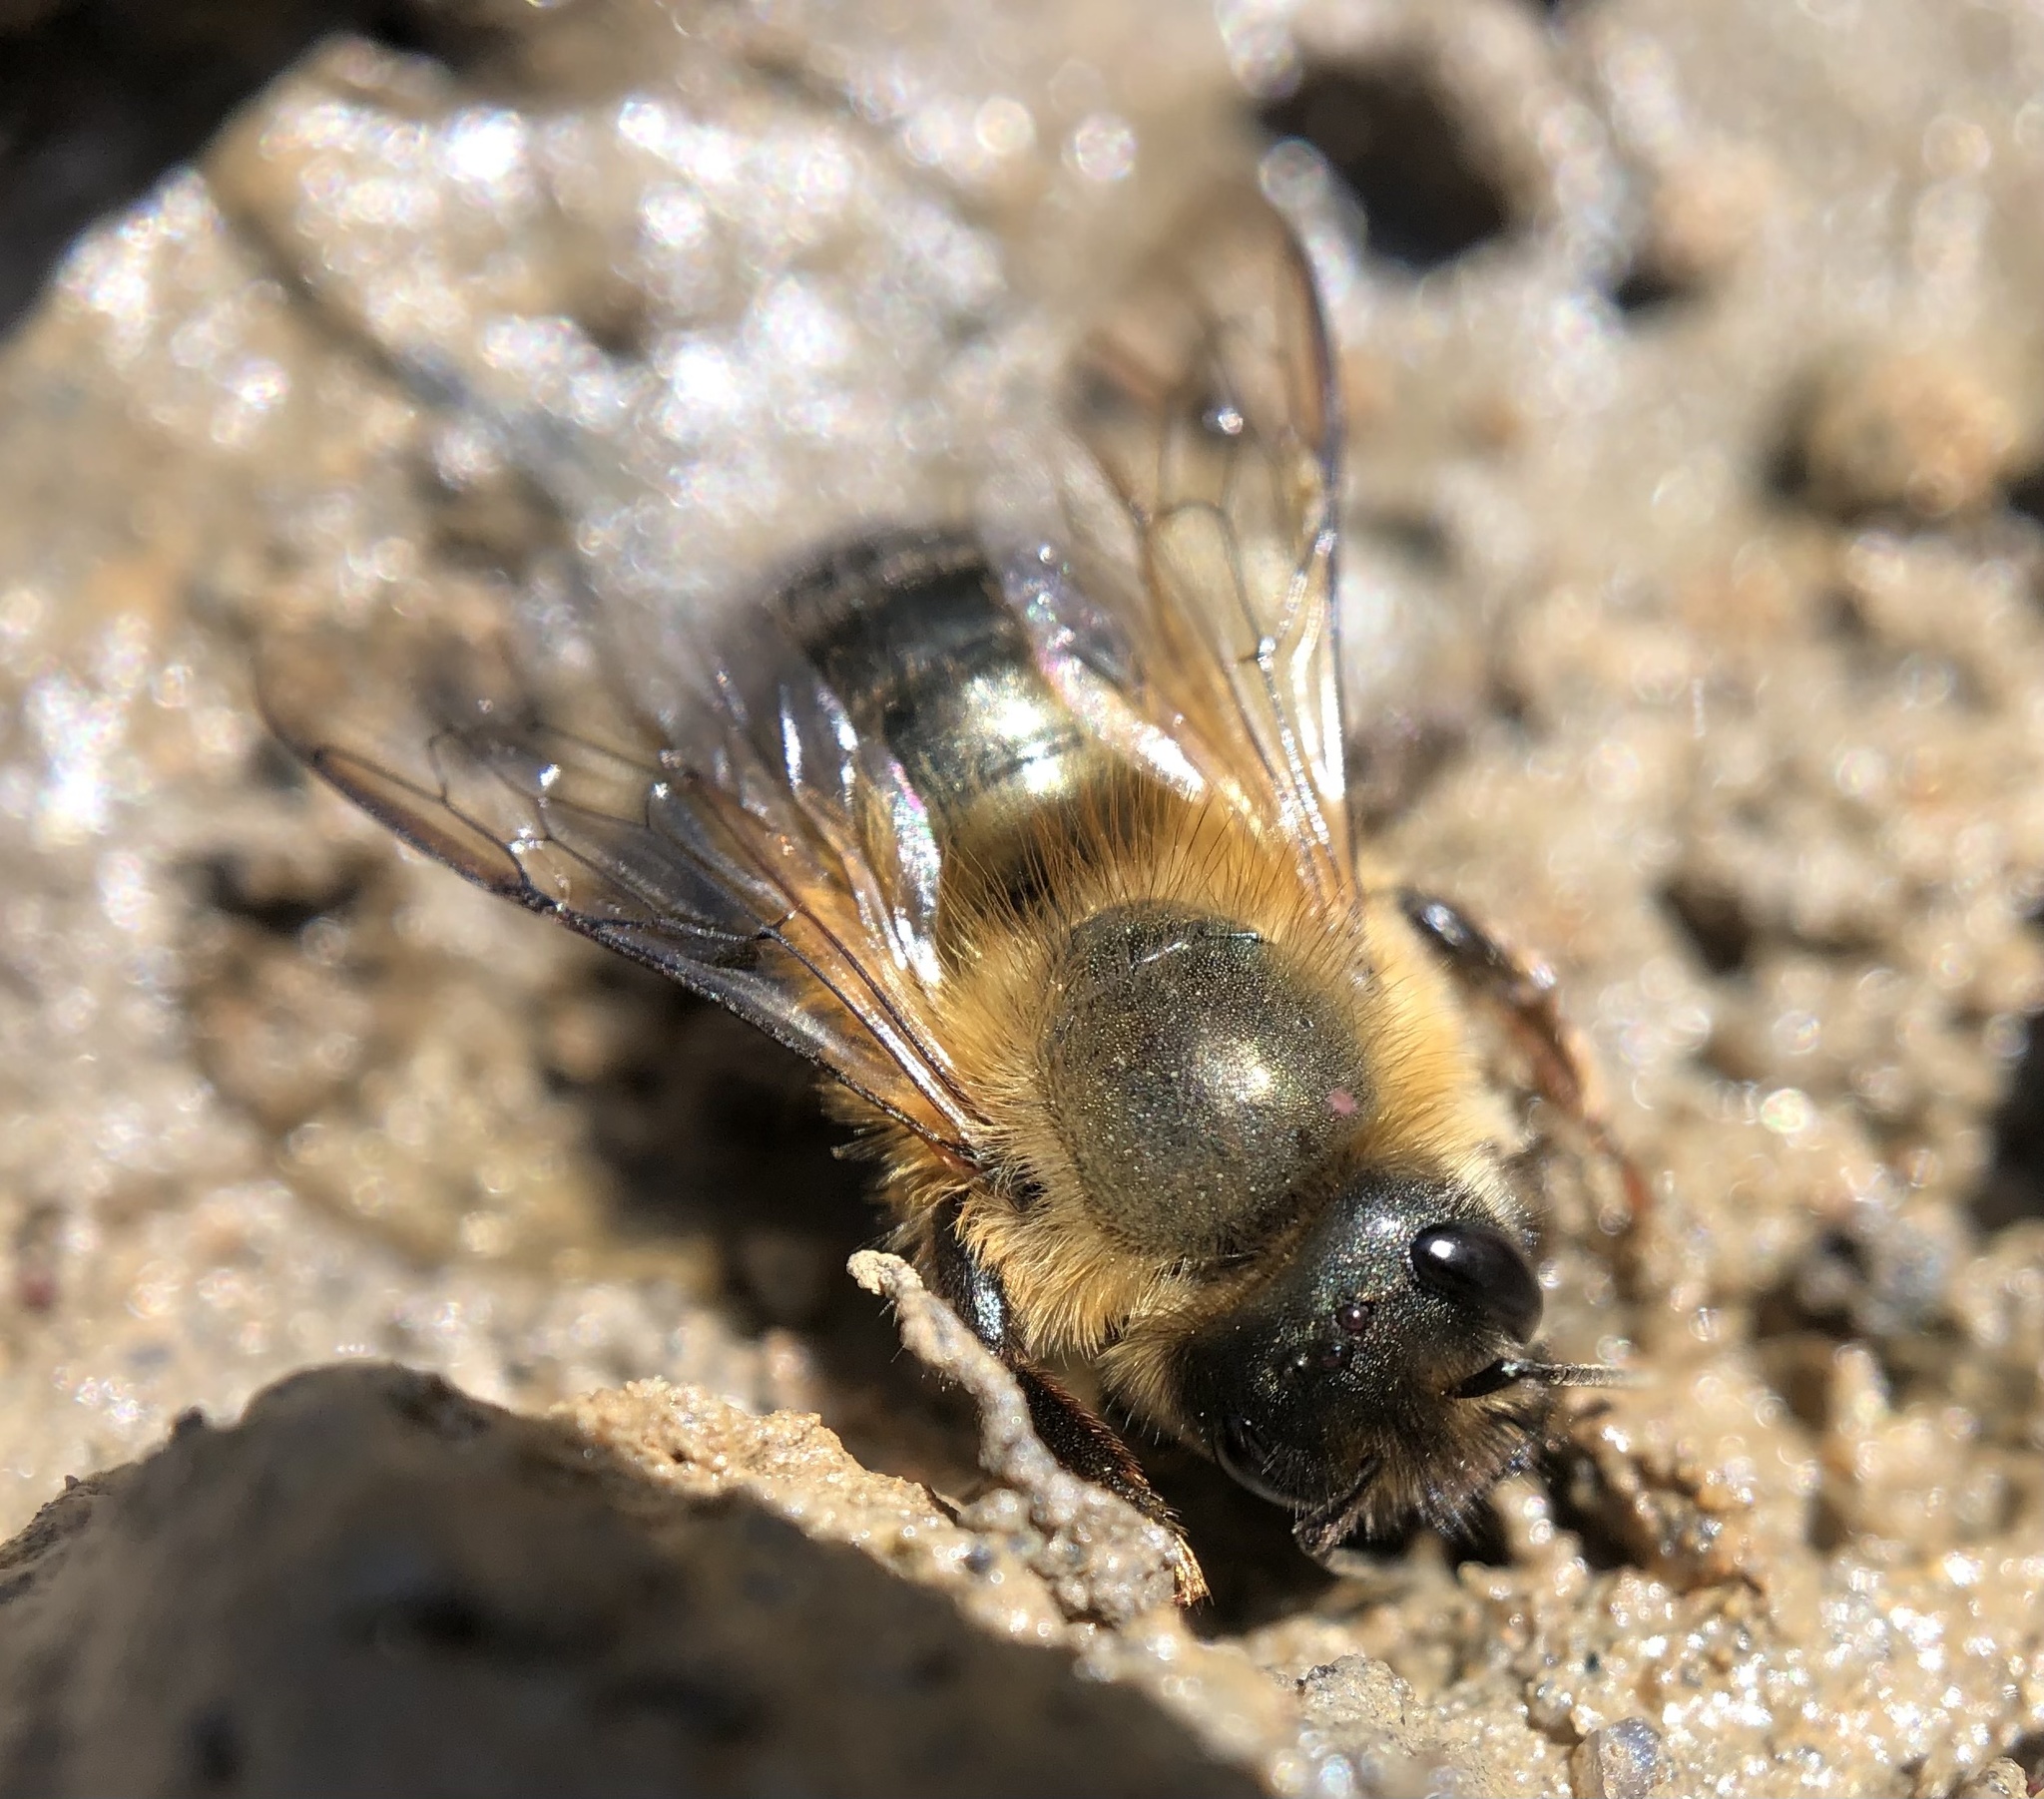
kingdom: Animalia
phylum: Arthropoda
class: Insecta
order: Hymenoptera
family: Megachilidae
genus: Osmia
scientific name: Osmia taurus
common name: Taurus mason bee
